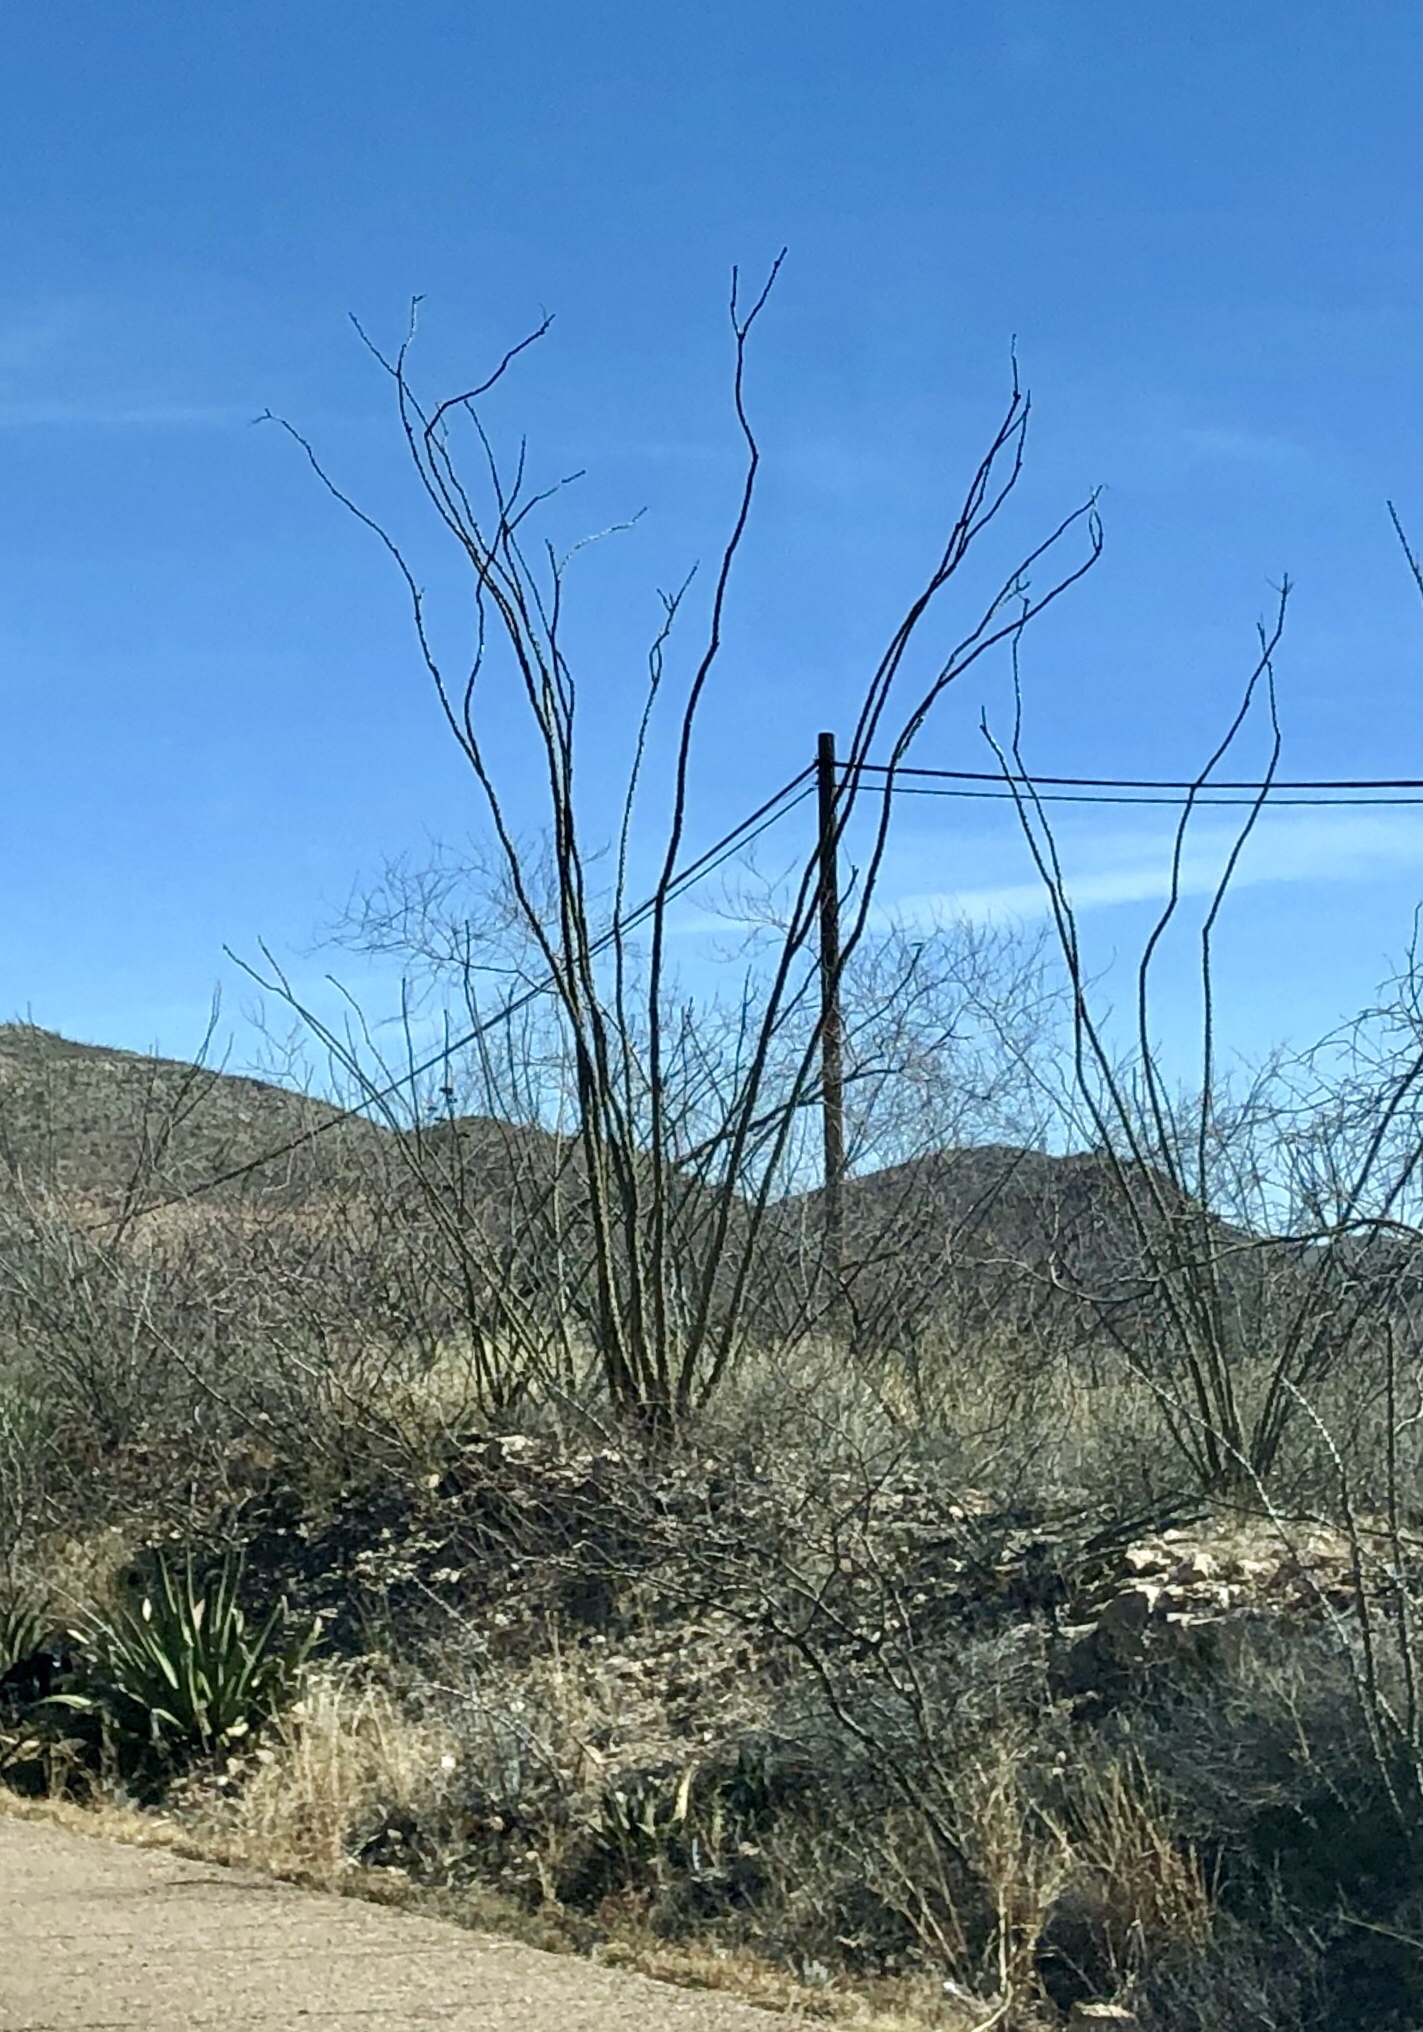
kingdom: Plantae
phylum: Tracheophyta
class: Magnoliopsida
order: Ericales
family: Fouquieriaceae
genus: Fouquieria
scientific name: Fouquieria splendens
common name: Vine-cactus
